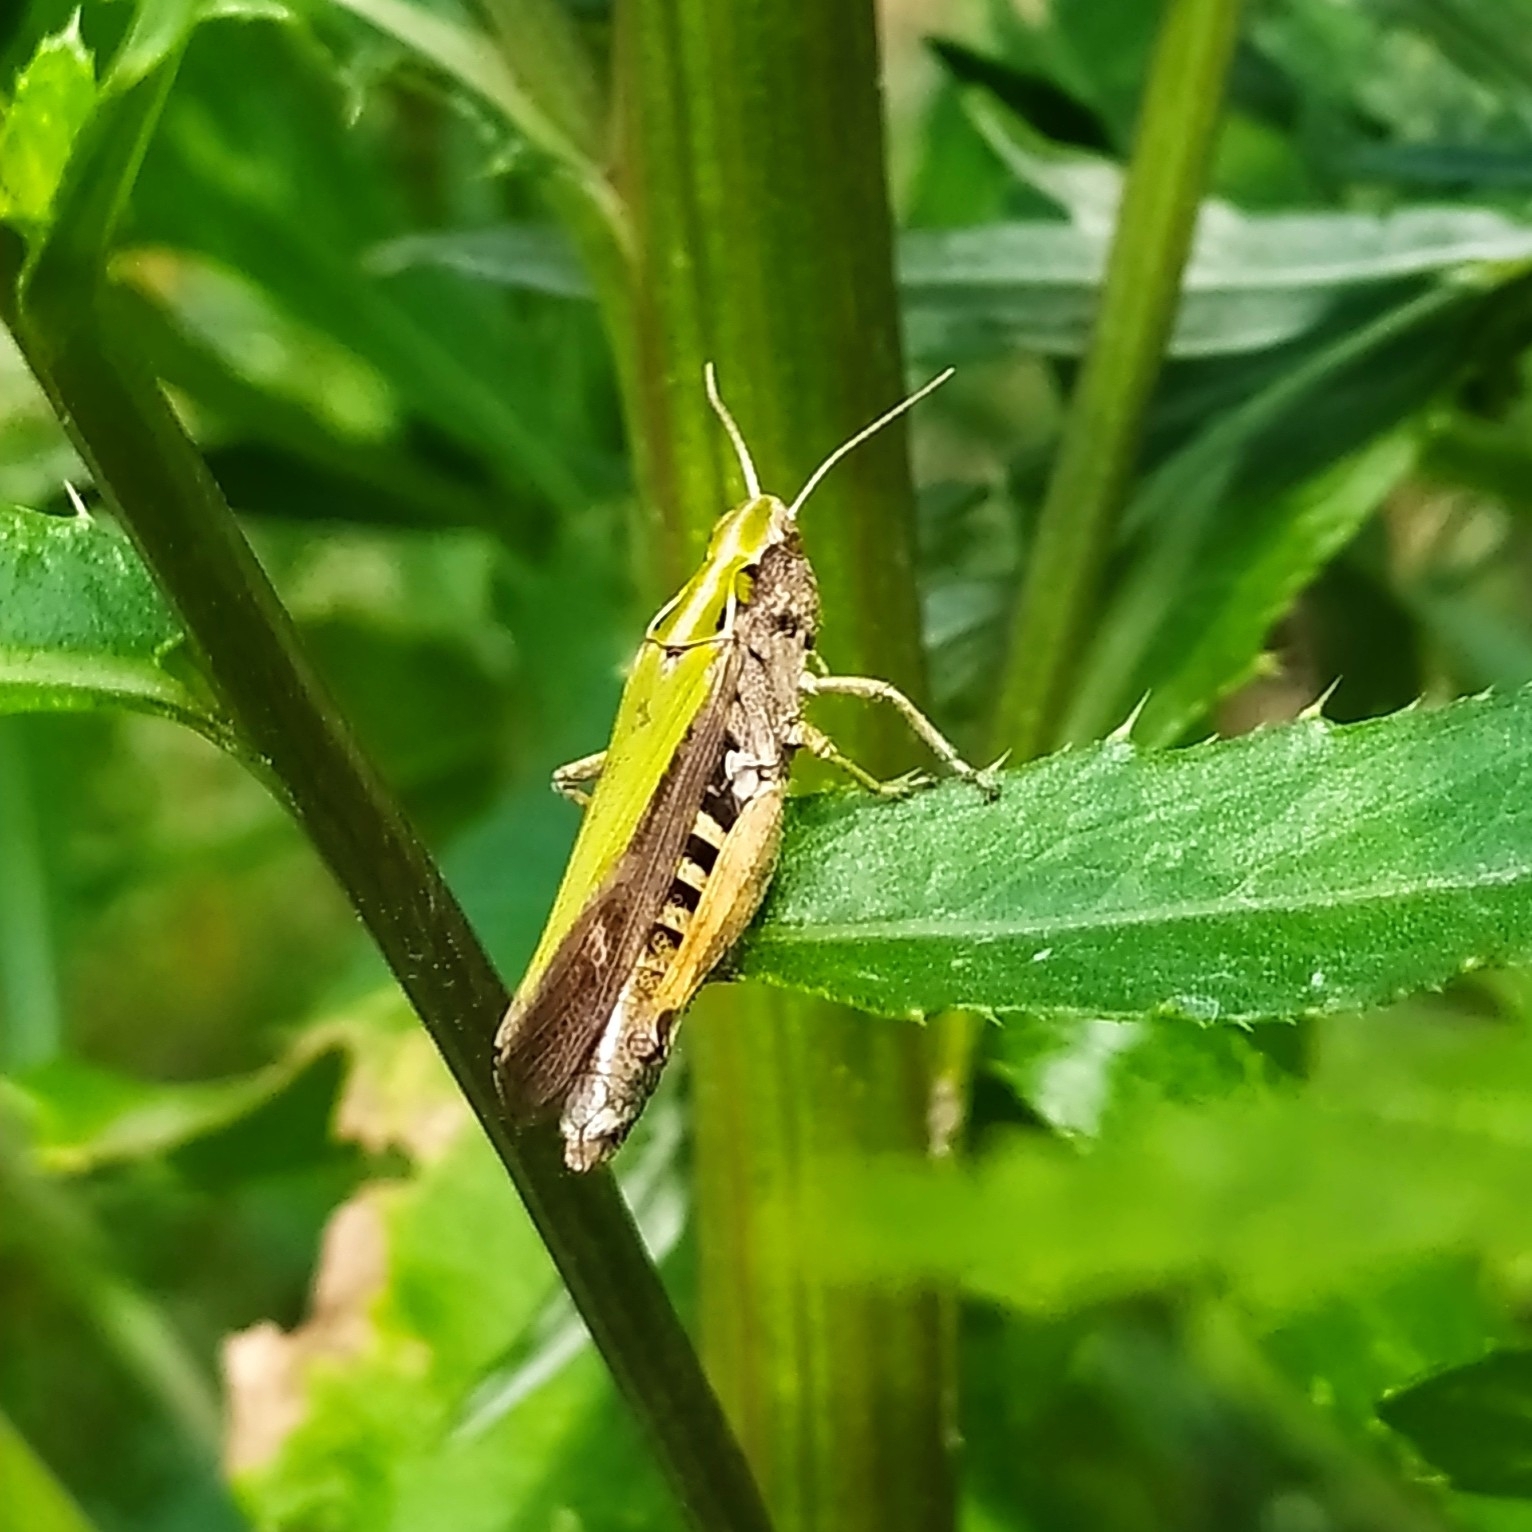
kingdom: Animalia
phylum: Arthropoda
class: Insecta
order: Orthoptera
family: Acrididae
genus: Omocestus
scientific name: Omocestus viridulus
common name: Common green grasshopper
